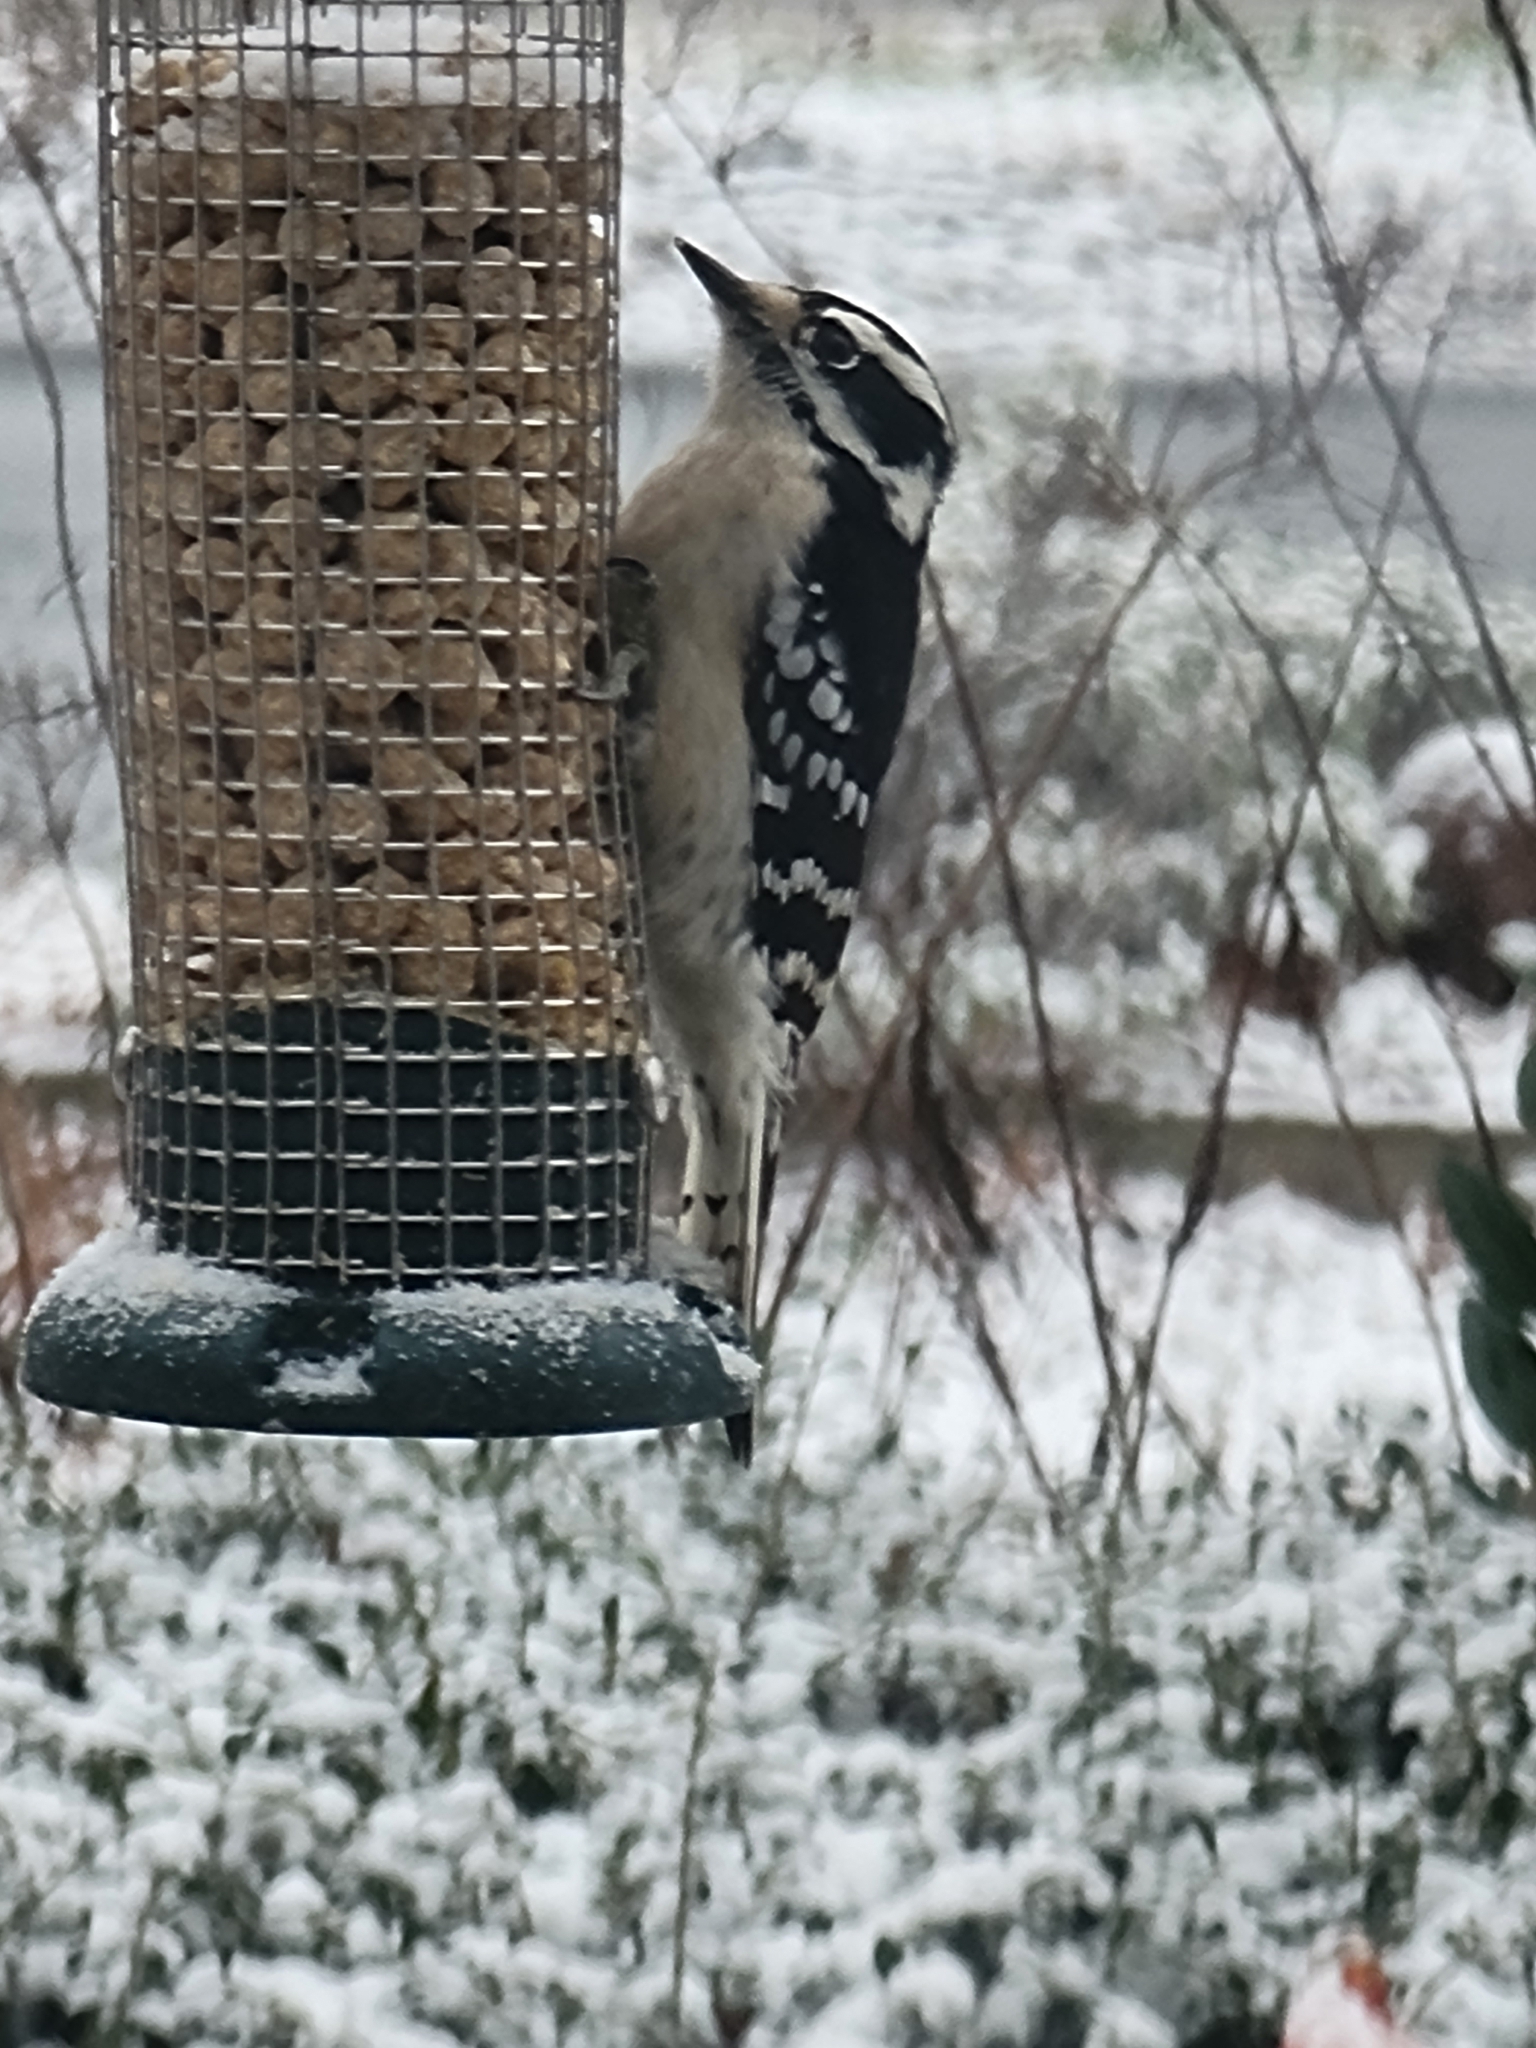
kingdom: Animalia
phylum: Chordata
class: Aves
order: Piciformes
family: Picidae
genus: Dryobates
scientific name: Dryobates pubescens
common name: Downy woodpecker
